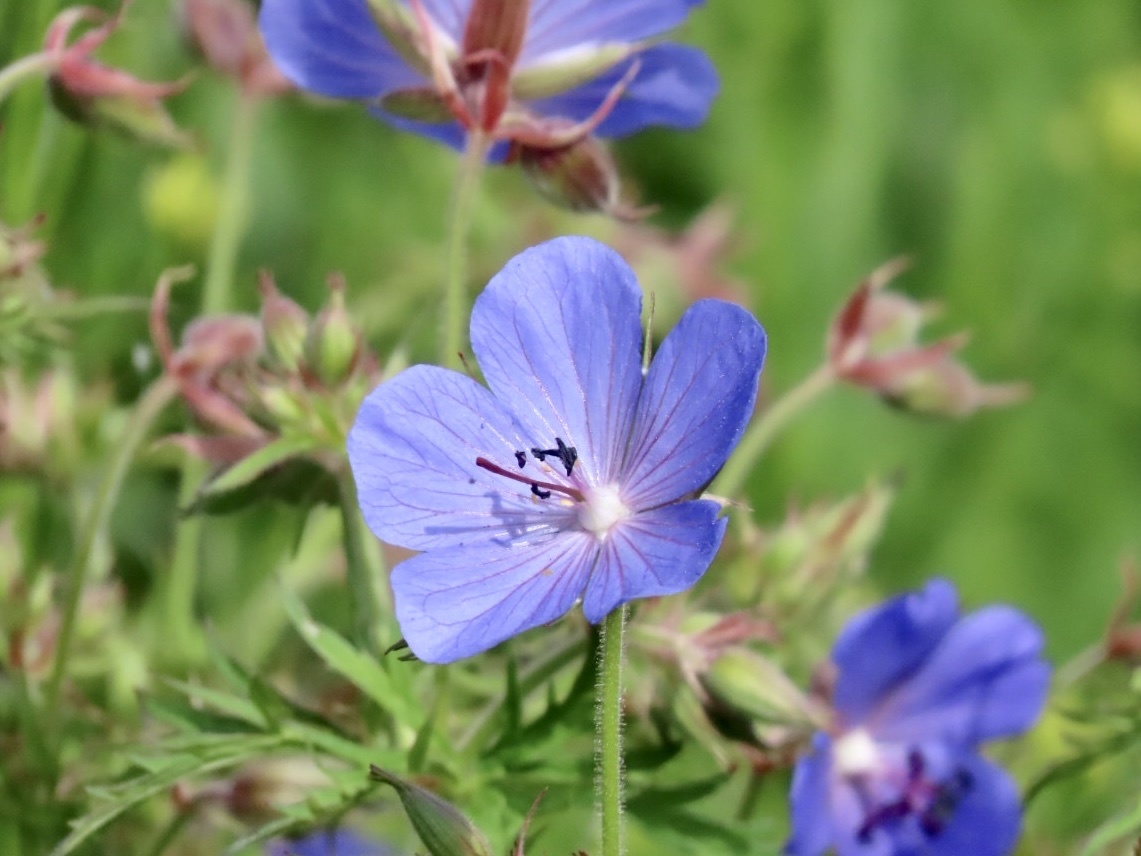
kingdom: Plantae
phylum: Tracheophyta
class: Magnoliopsida
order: Geraniales
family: Geraniaceae
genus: Geranium
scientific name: Geranium pratense
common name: Meadow crane's-bill
